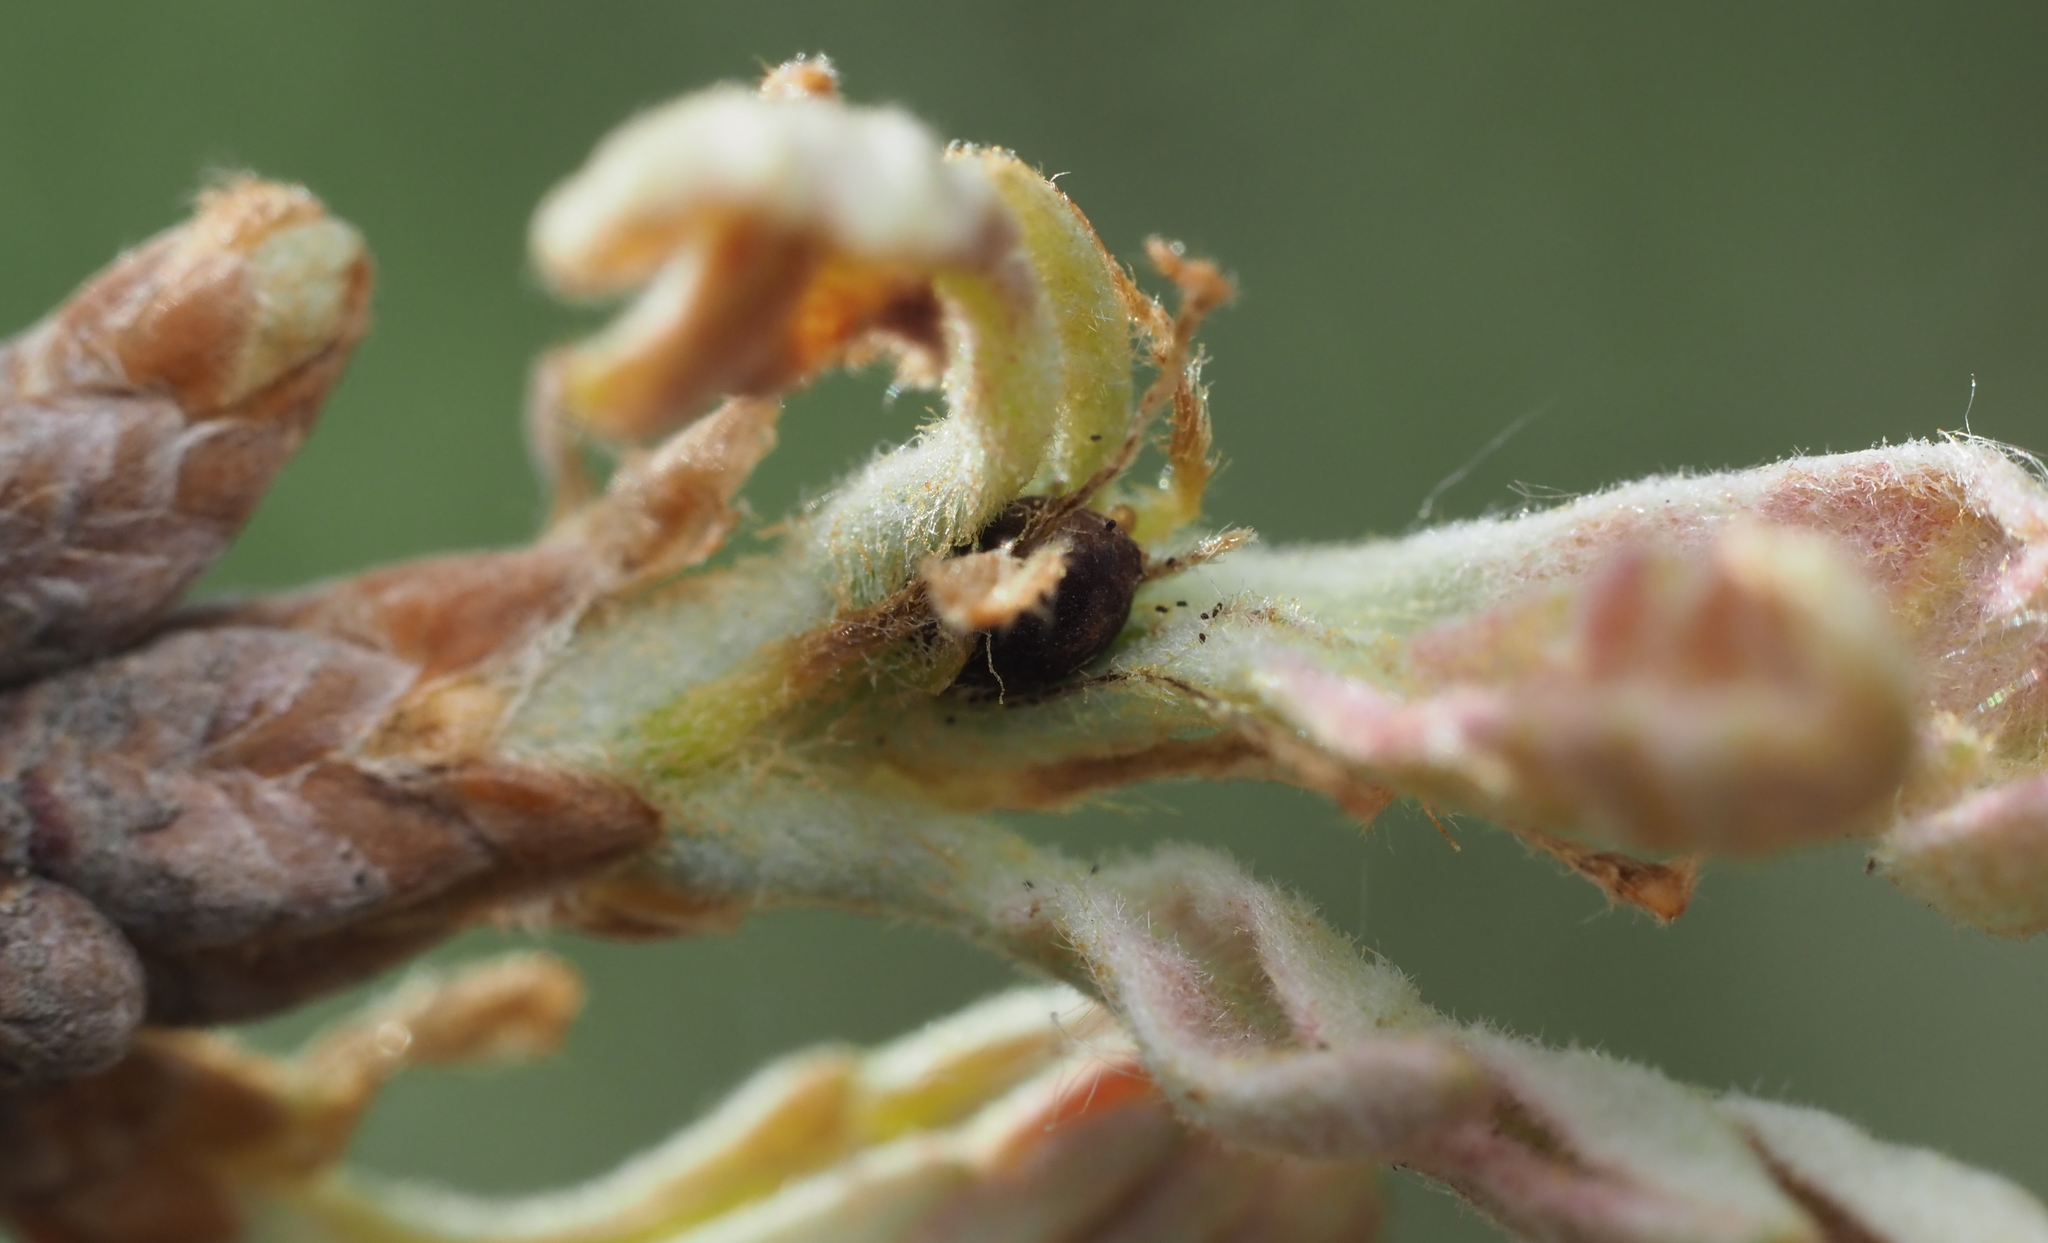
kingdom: Animalia
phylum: Arthropoda
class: Insecta
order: Hymenoptera
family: Cynipidae
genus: Philonix
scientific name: Philonix fulvicollis
